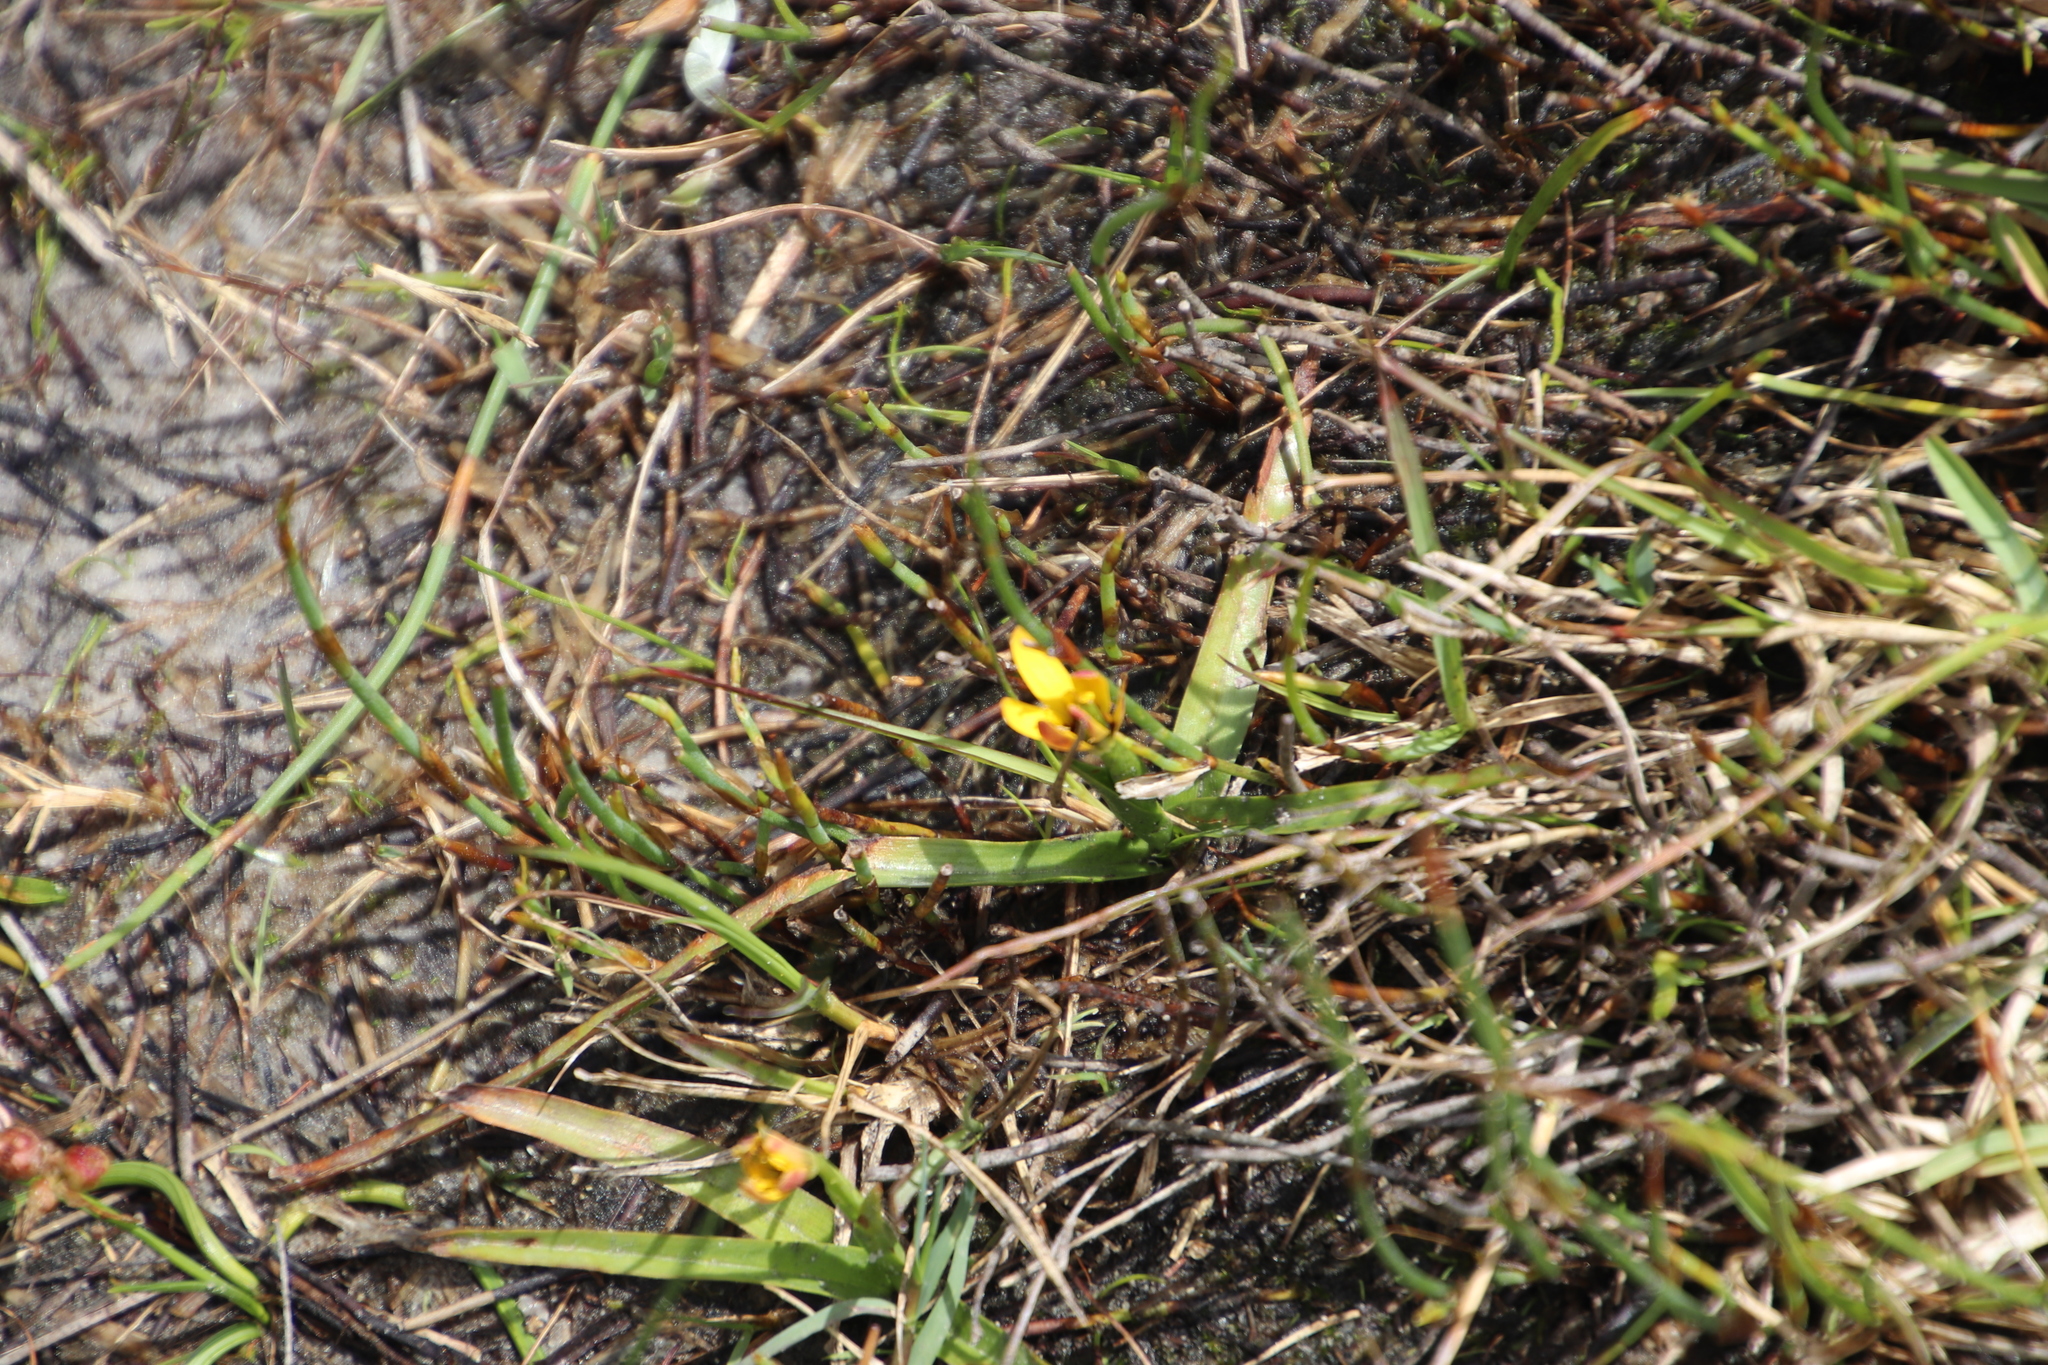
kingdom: Plantae
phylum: Tracheophyta
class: Liliopsida
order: Liliales
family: Colchicaceae
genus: Baeometra
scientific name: Baeometra uniflora
